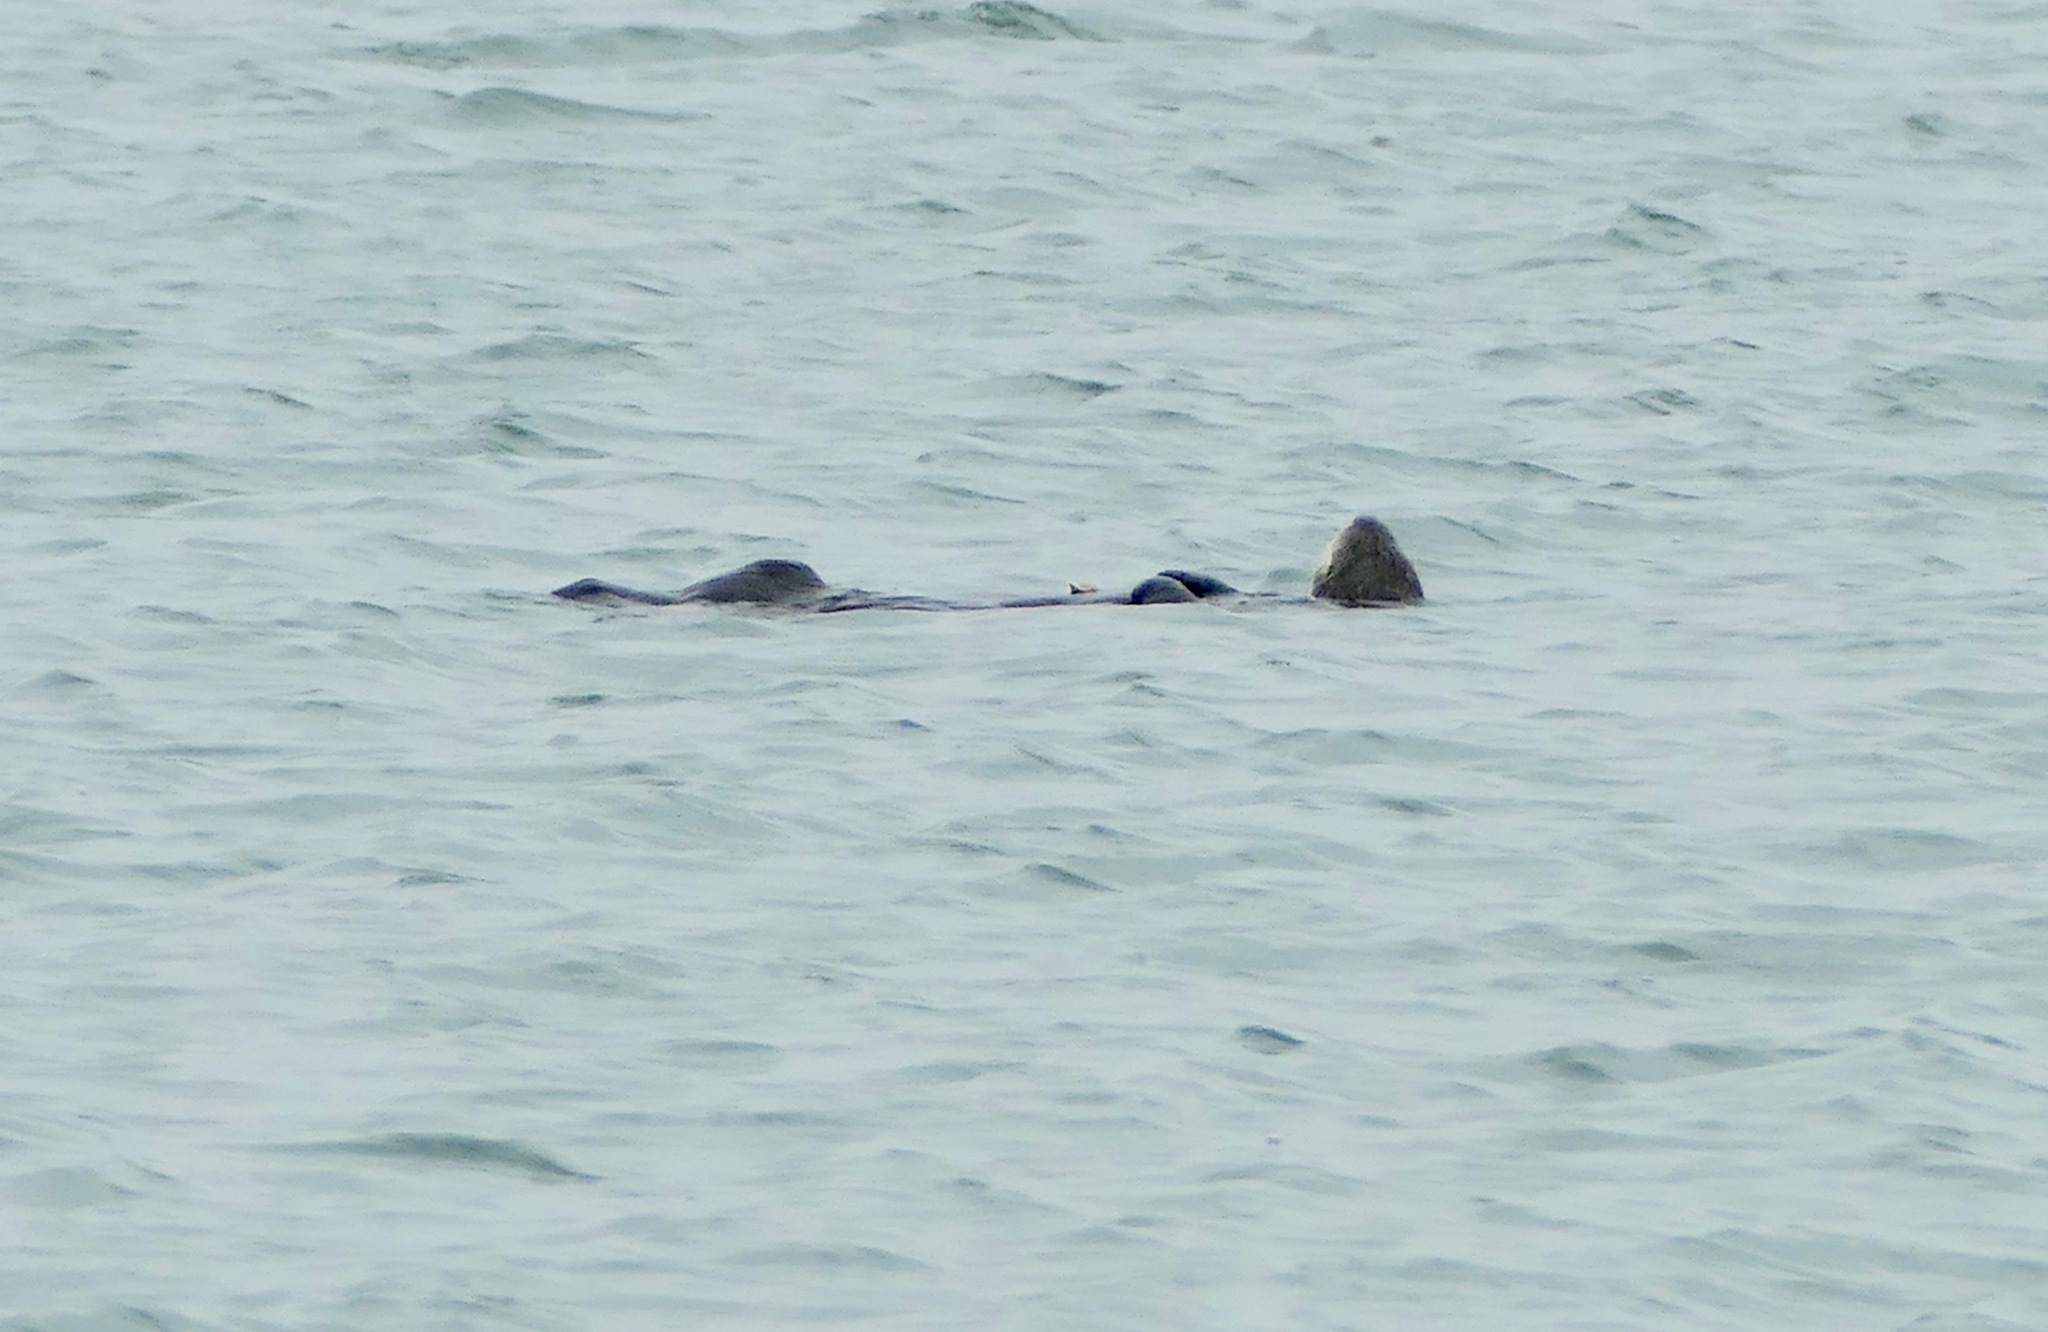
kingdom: Animalia
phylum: Chordata
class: Mammalia
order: Carnivora
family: Mustelidae
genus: Enhydra
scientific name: Enhydra lutris
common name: Sea otter
